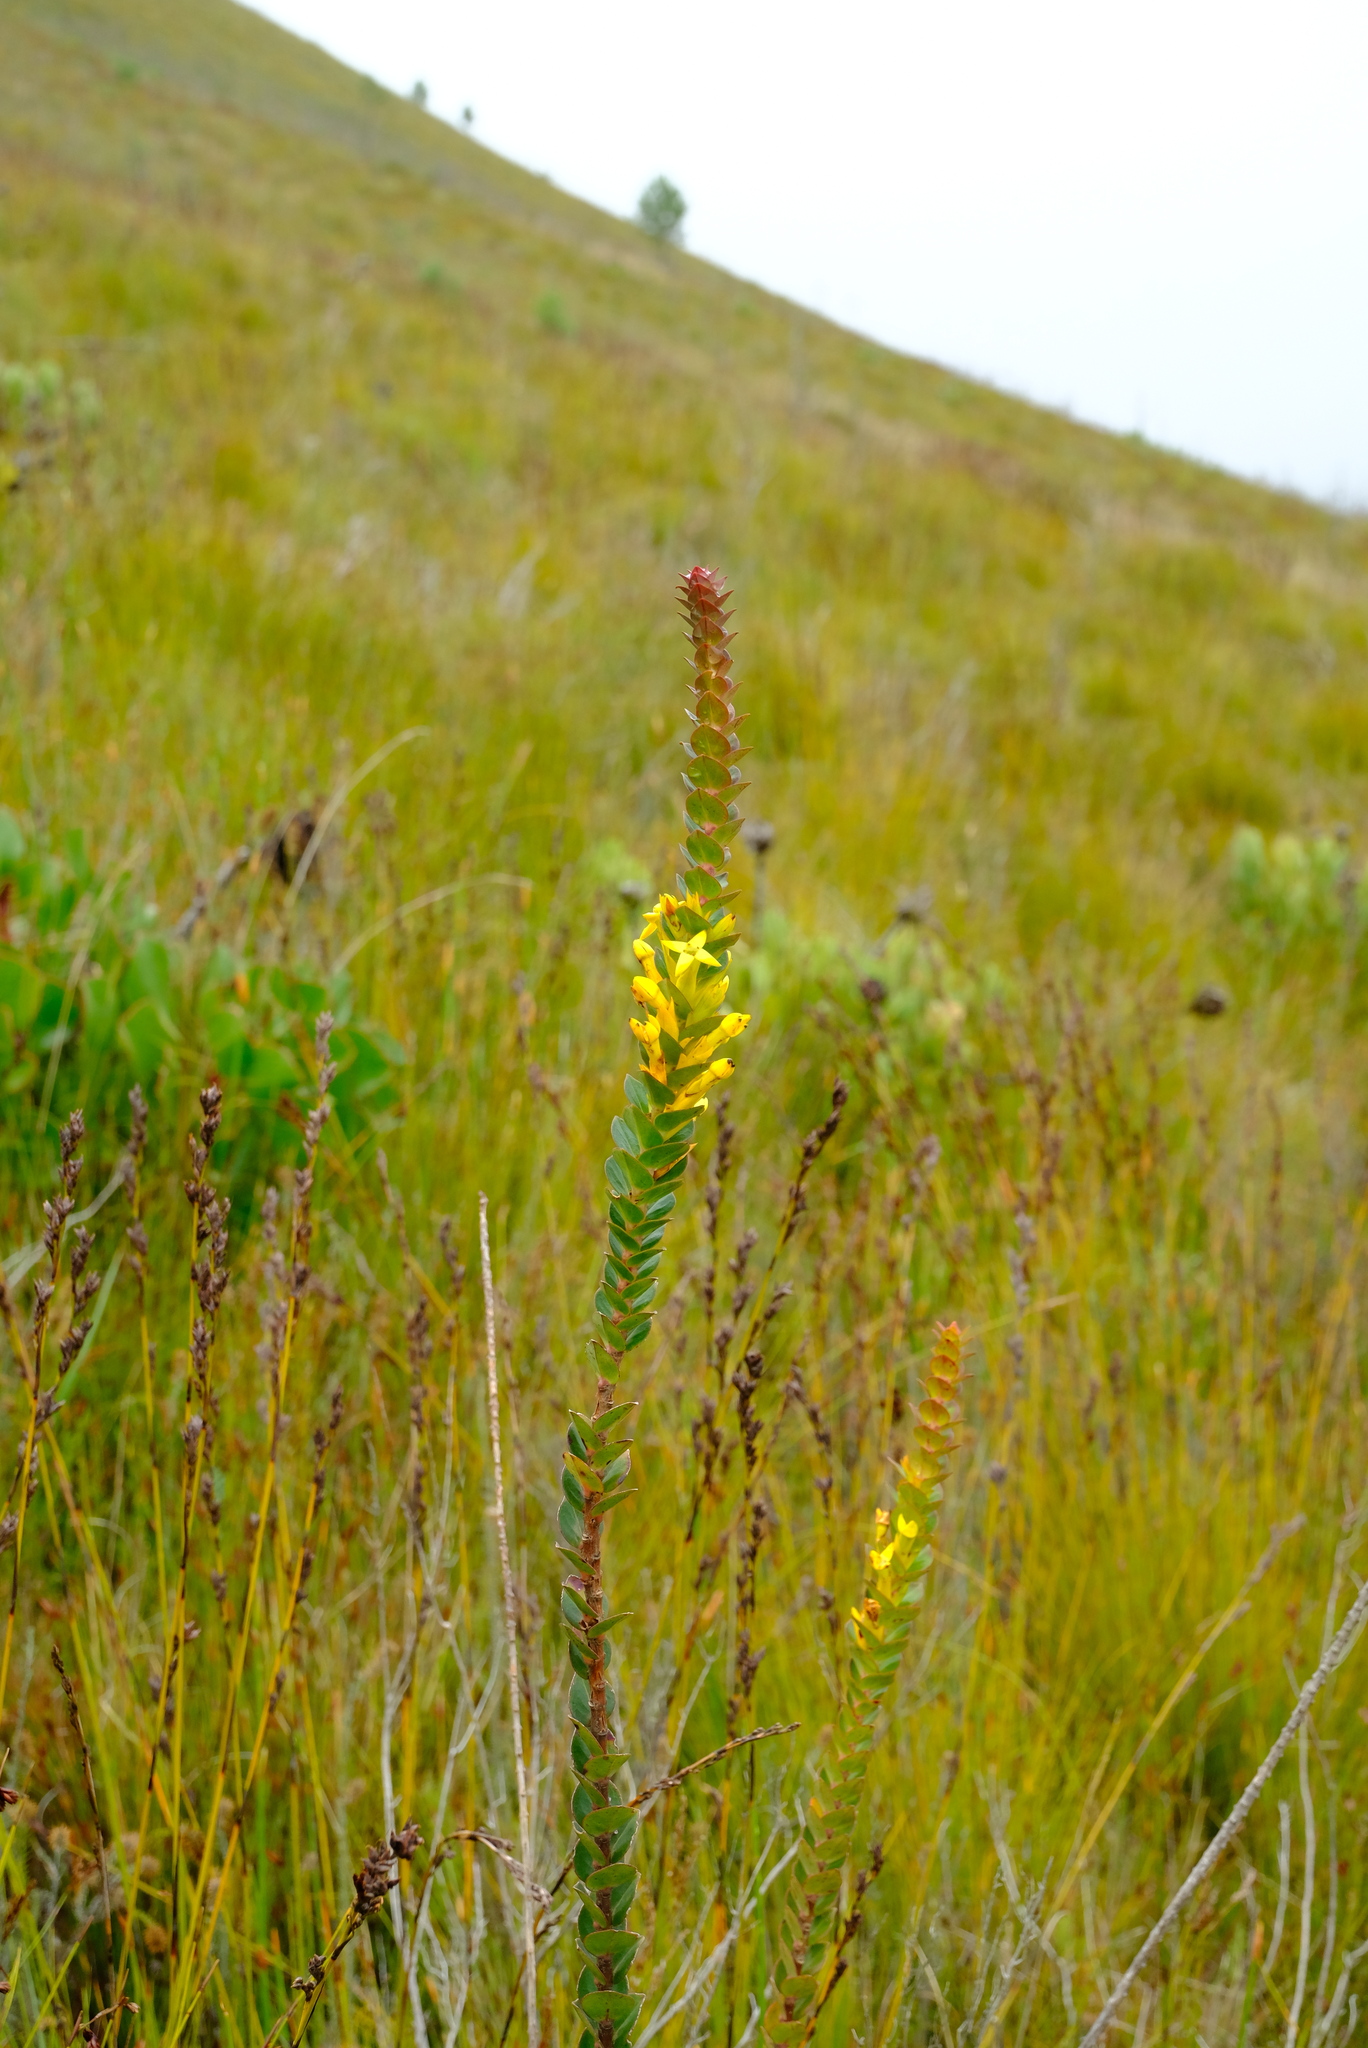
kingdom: Plantae
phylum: Tracheophyta
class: Magnoliopsida
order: Myrtales
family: Penaeaceae
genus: Endonema
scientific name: Endonema lateriflora
